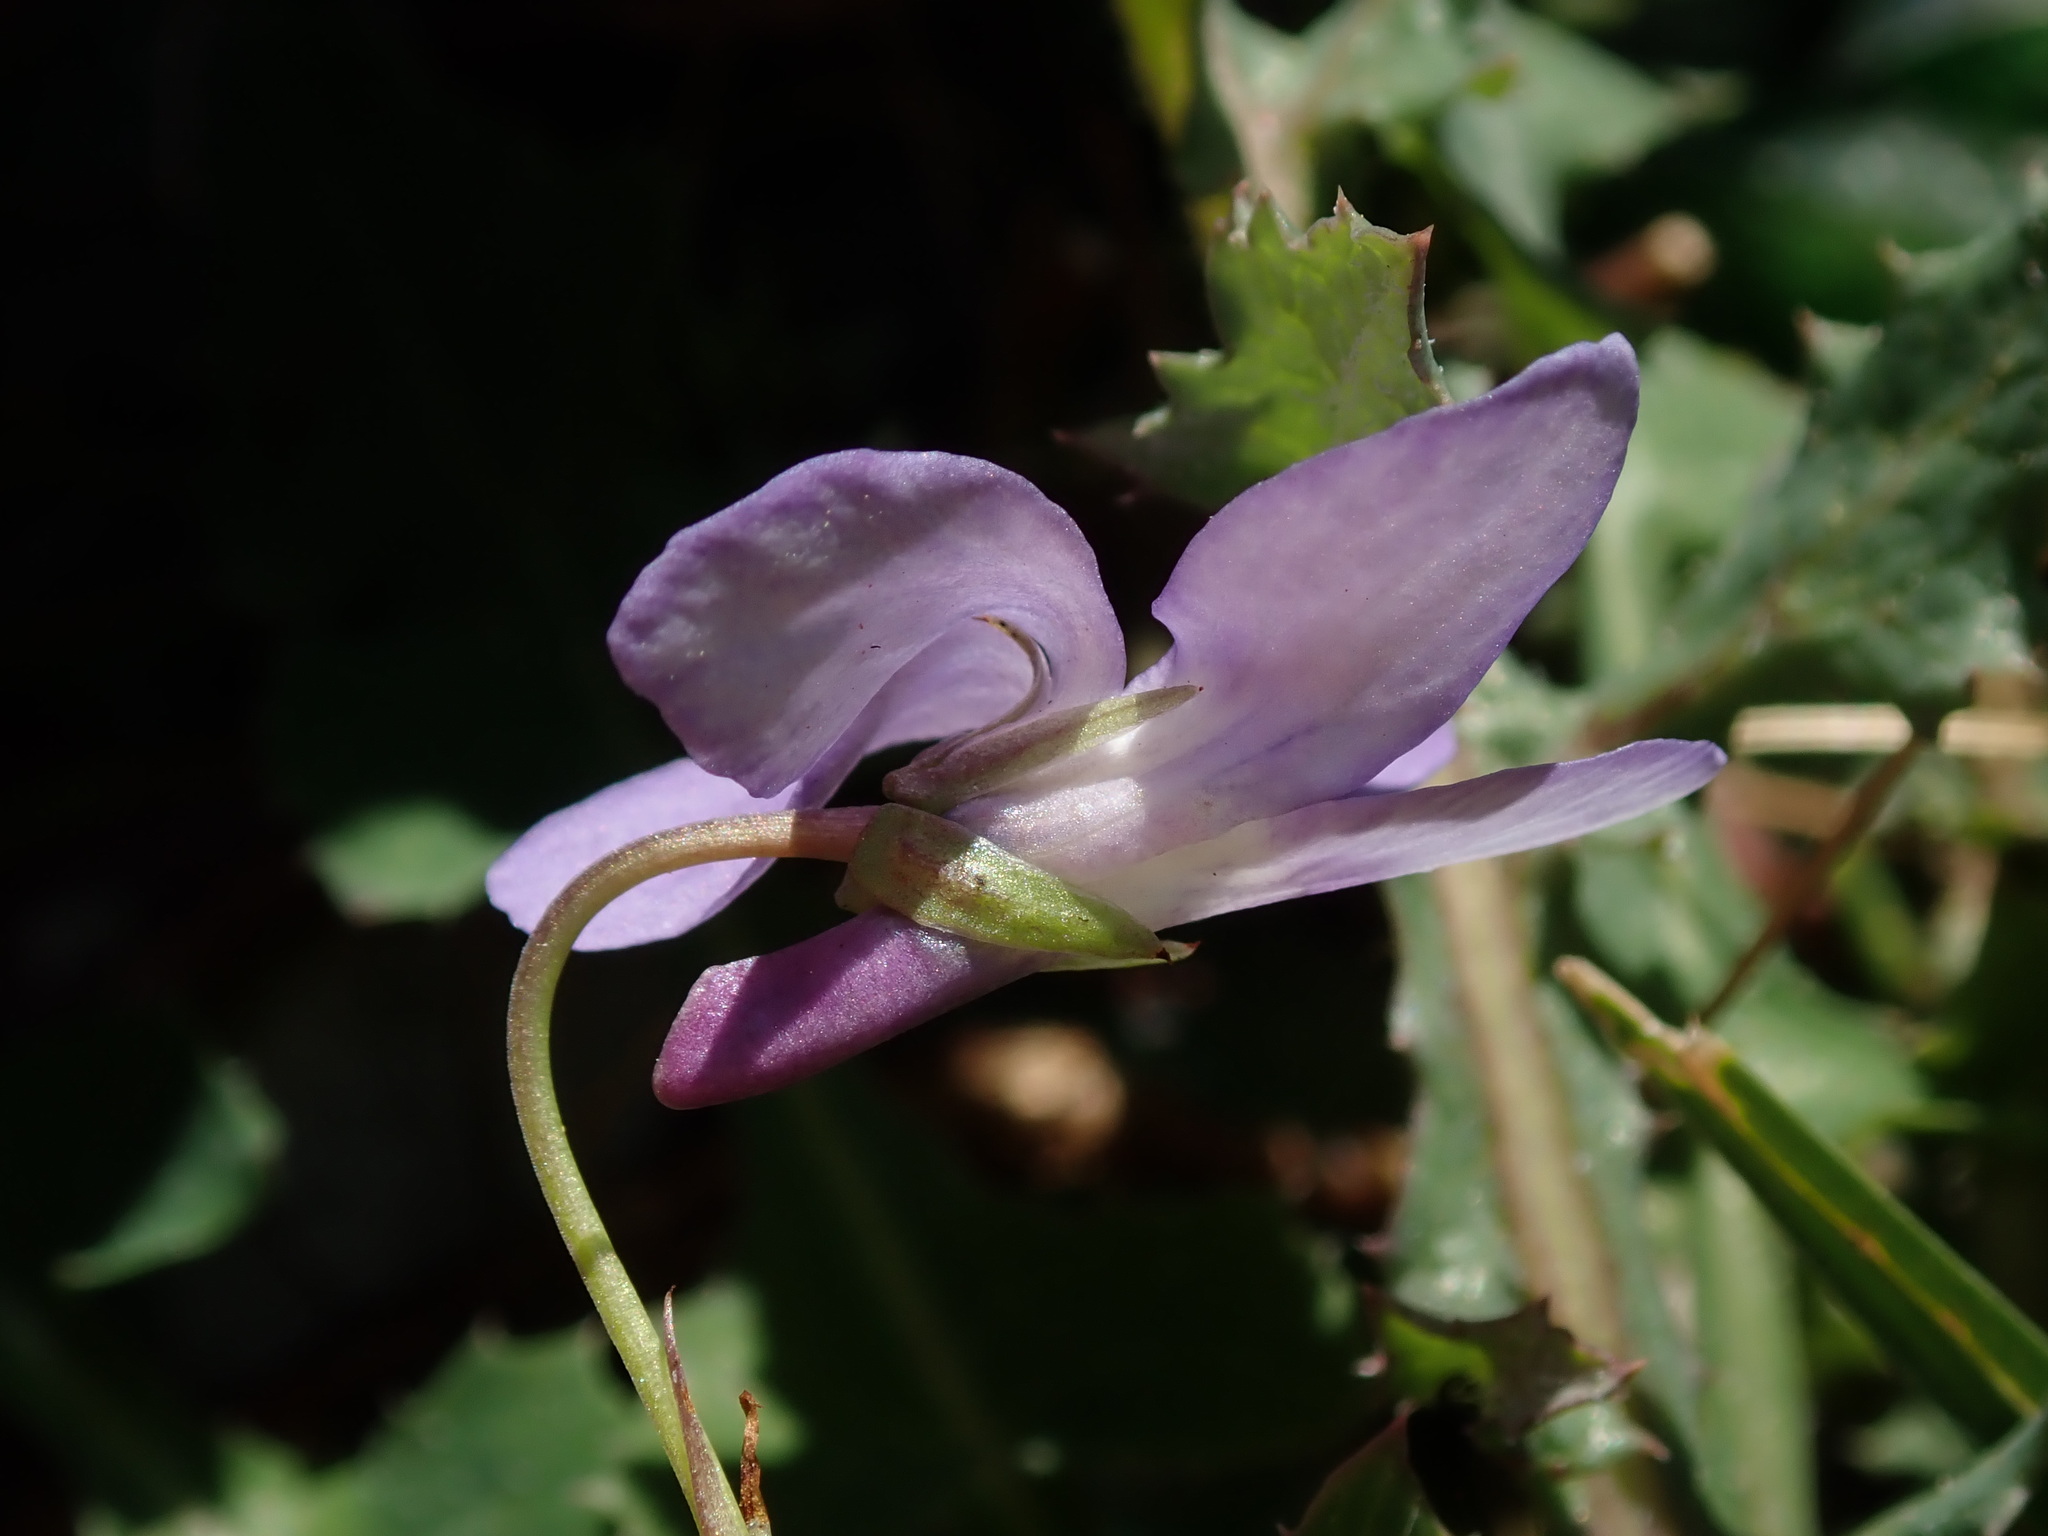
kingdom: Plantae
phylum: Tracheophyta
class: Magnoliopsida
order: Malpighiales
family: Violaceae
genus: Viola
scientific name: Viola reichenbachiana
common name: Early dog-violet
